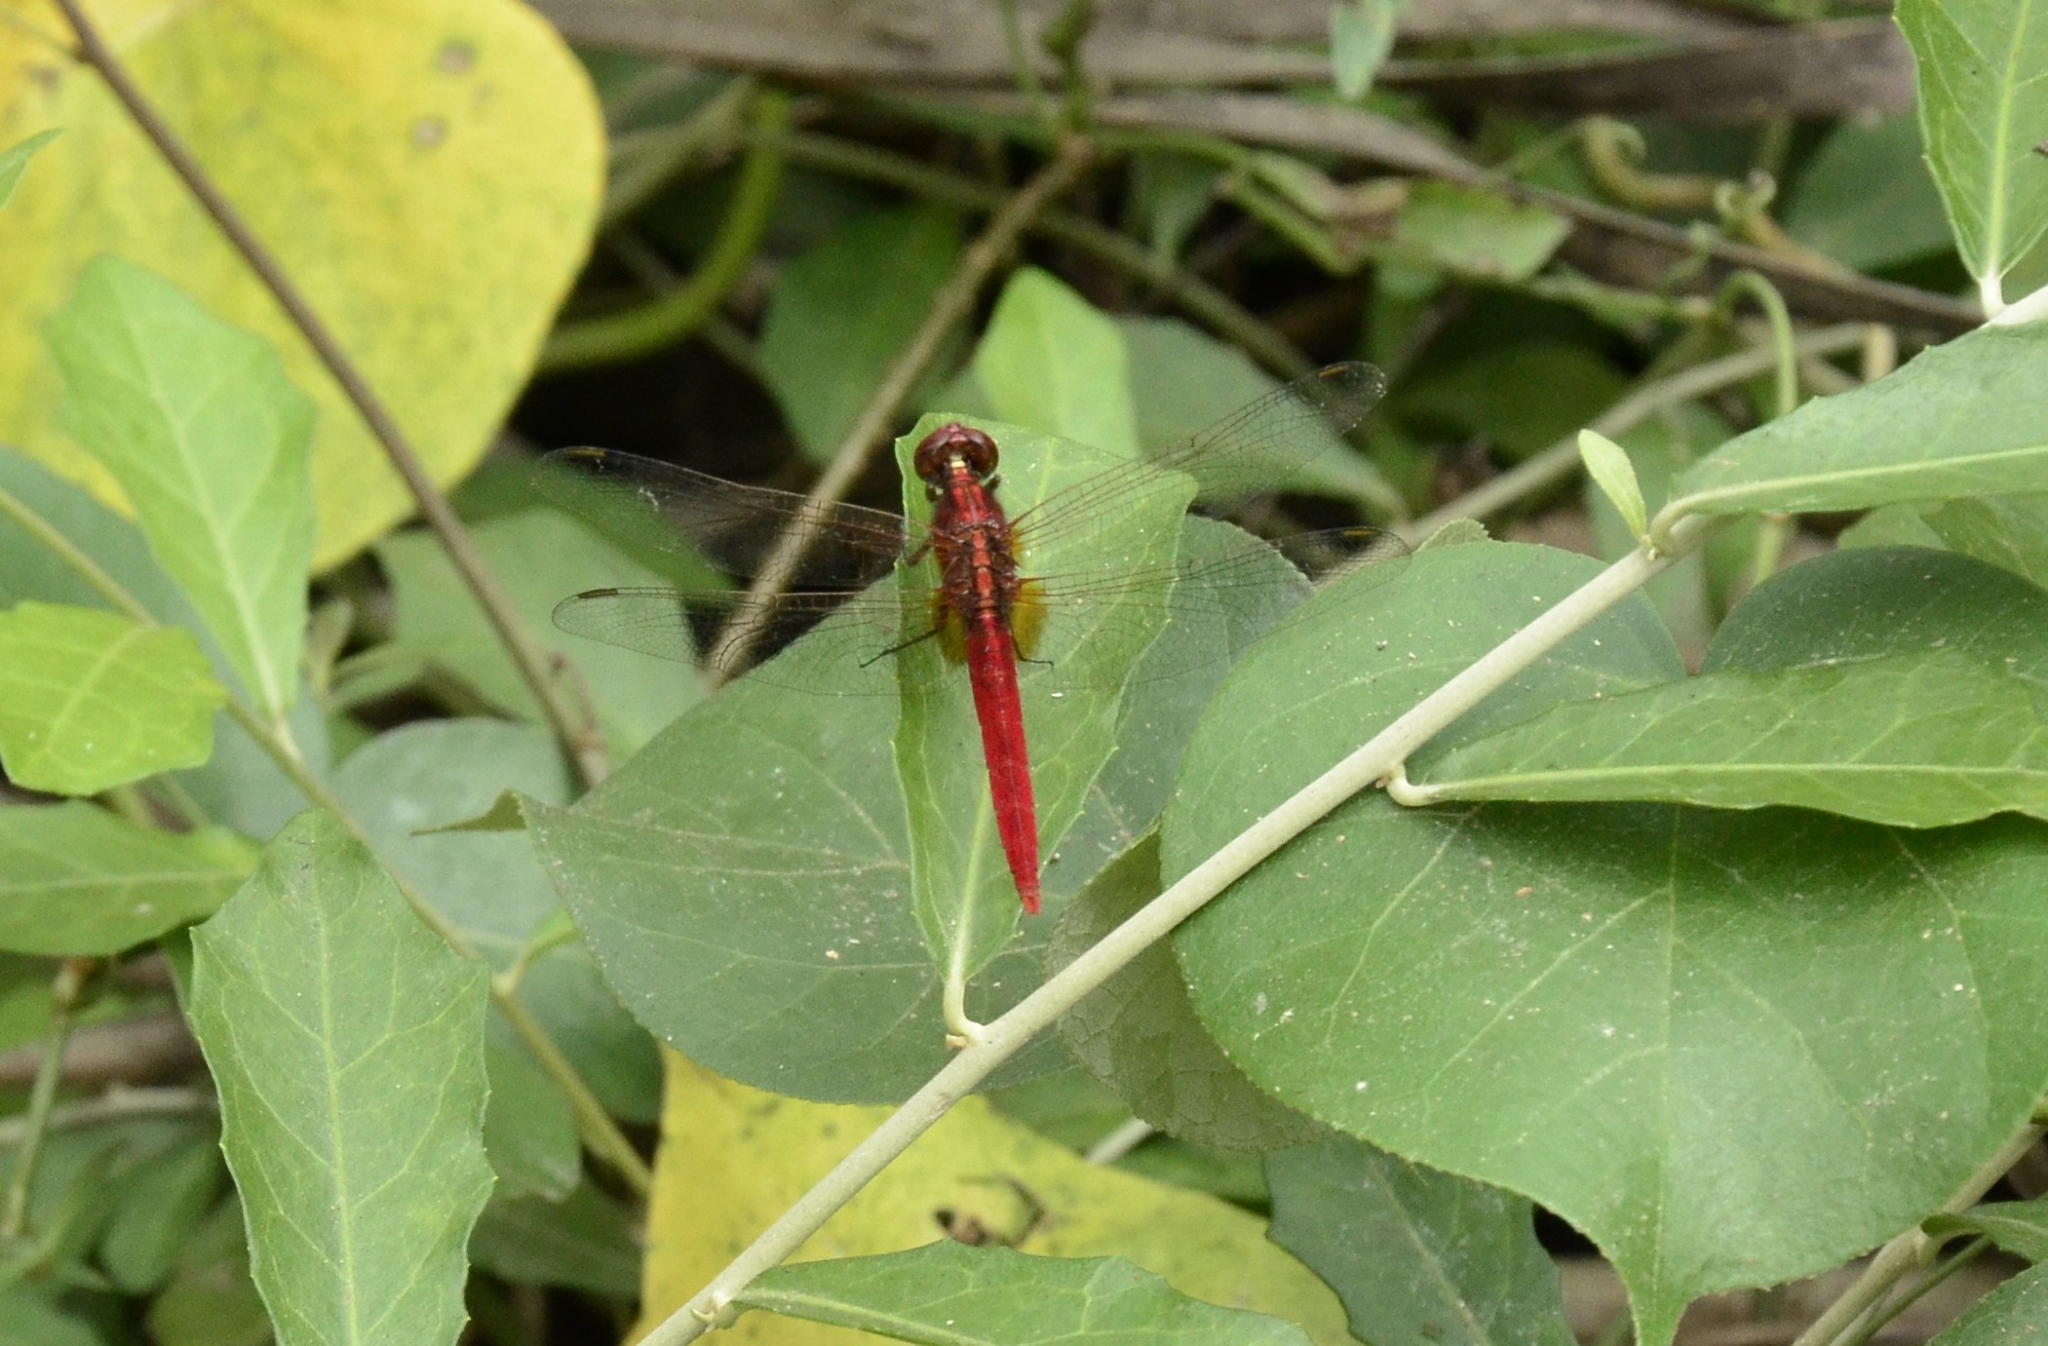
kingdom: Animalia
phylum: Arthropoda
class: Insecta
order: Odonata
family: Libellulidae
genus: Rhodothemis
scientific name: Rhodothemis rufa
